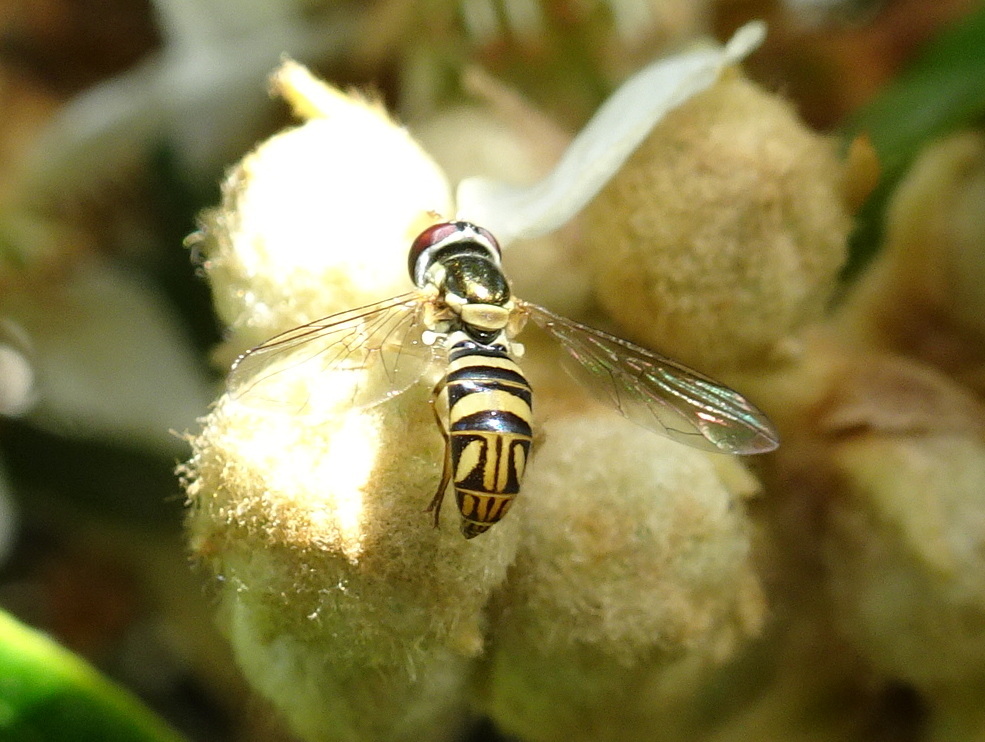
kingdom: Animalia
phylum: Arthropoda
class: Insecta
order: Diptera
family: Syrphidae
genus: Allograpta
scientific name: Allograpta obliqua
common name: Common oblique syrphid
